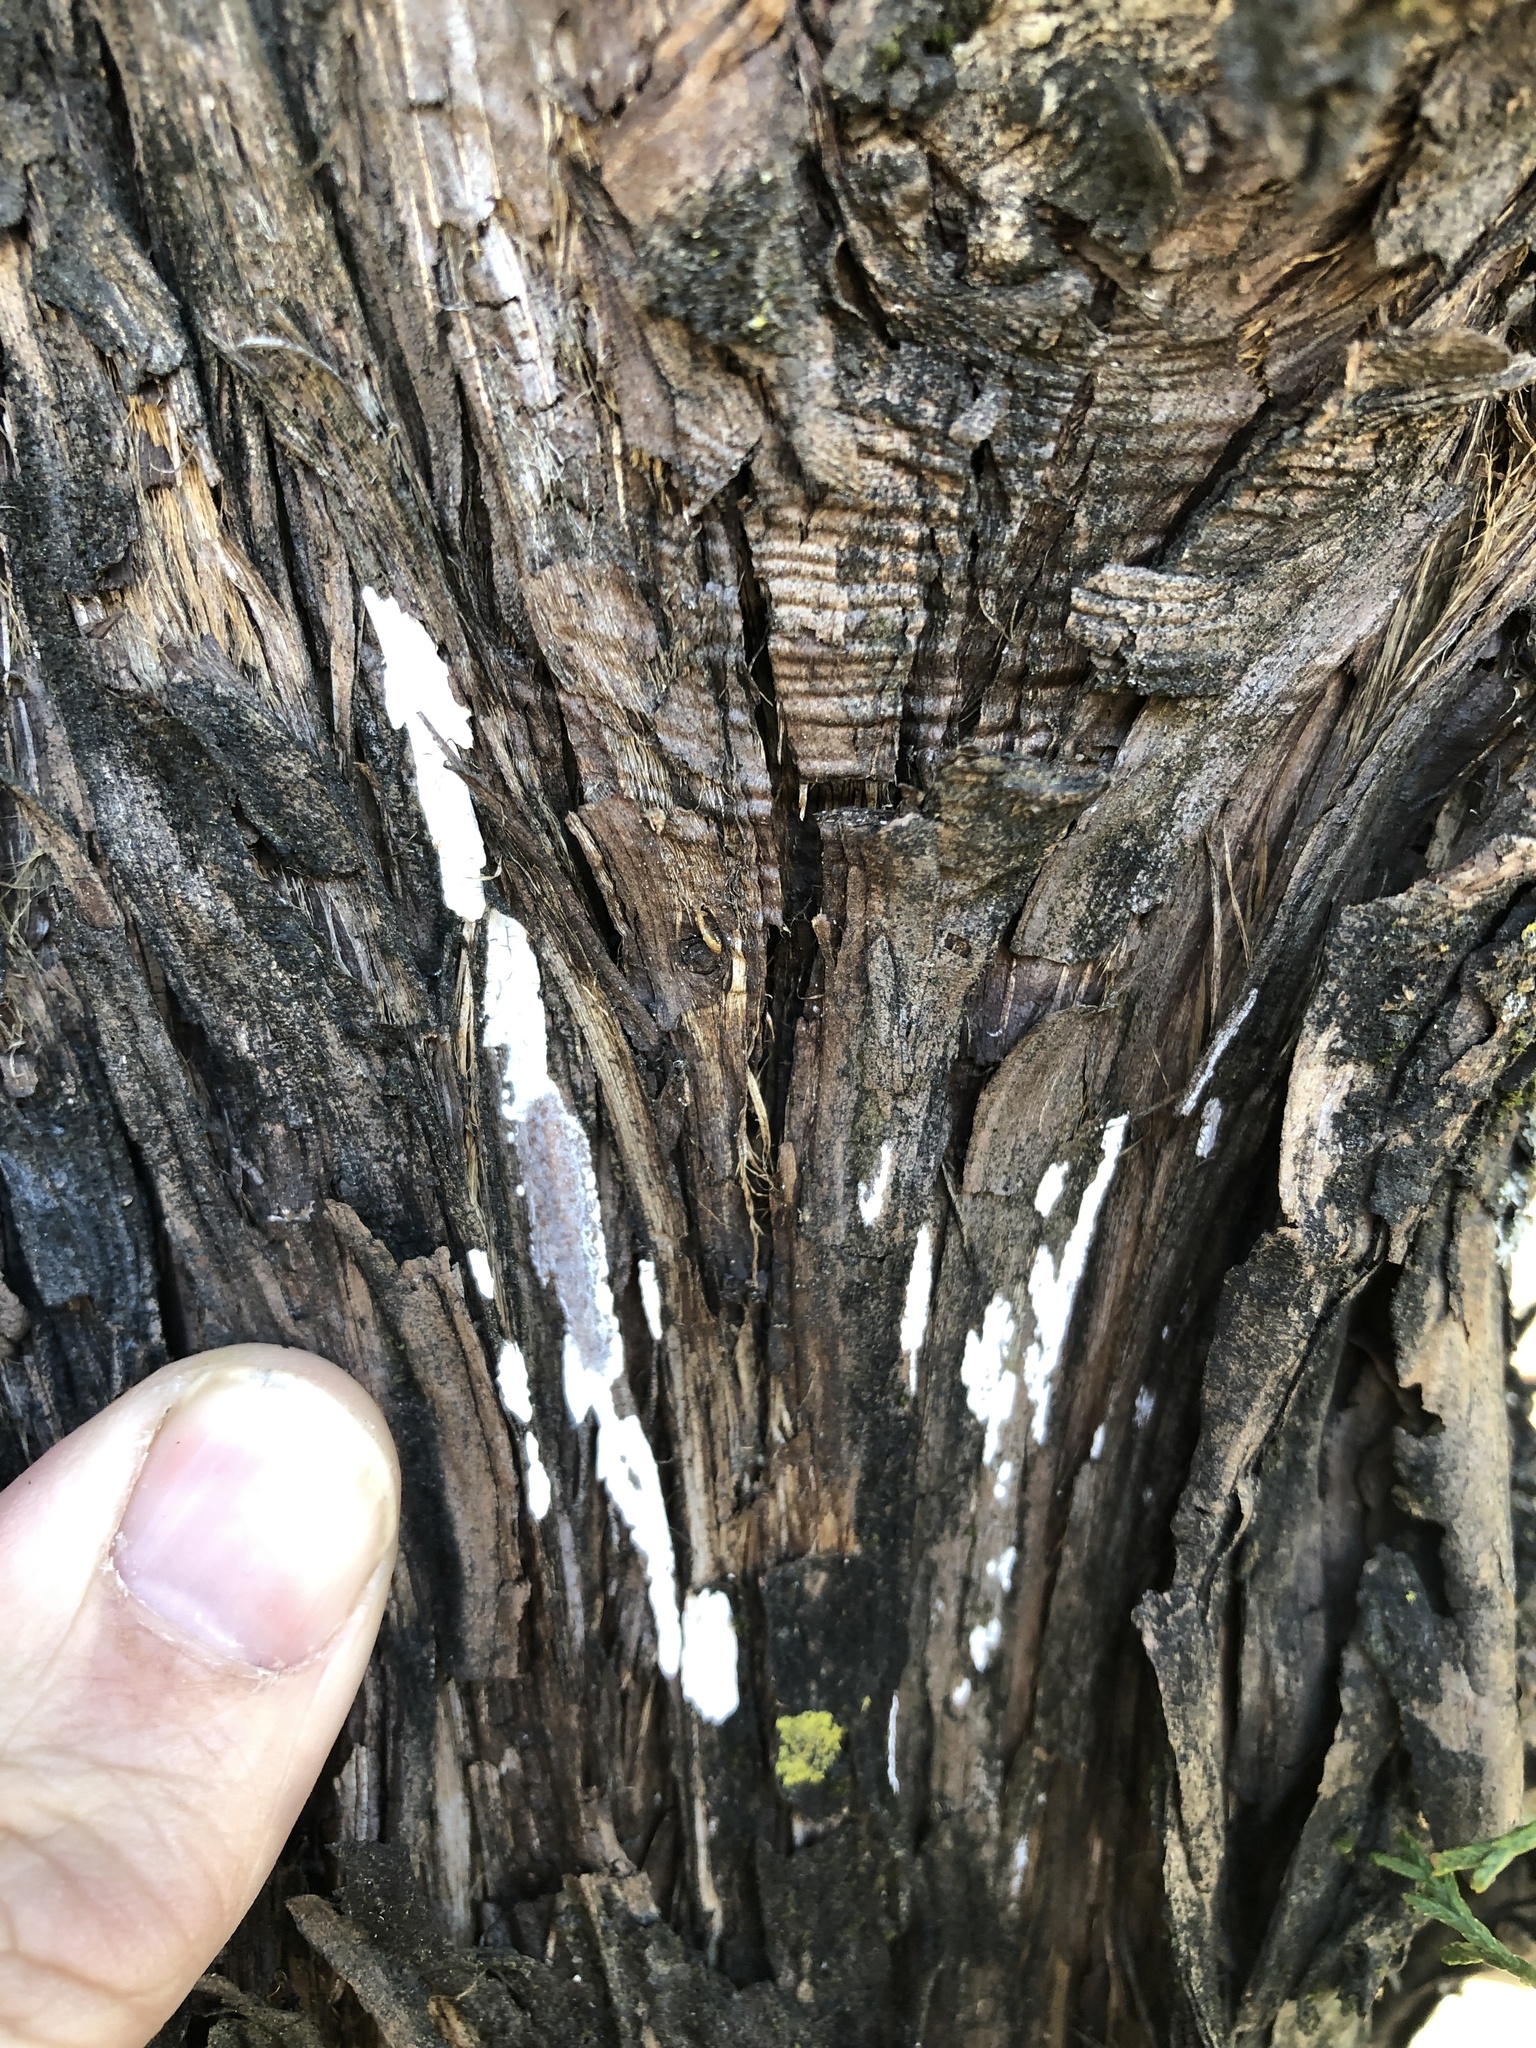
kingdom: Fungi
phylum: Basidiomycota
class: Agaricomycetes
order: Agaricales
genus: Dendrothele
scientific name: Dendrothele nivosa
